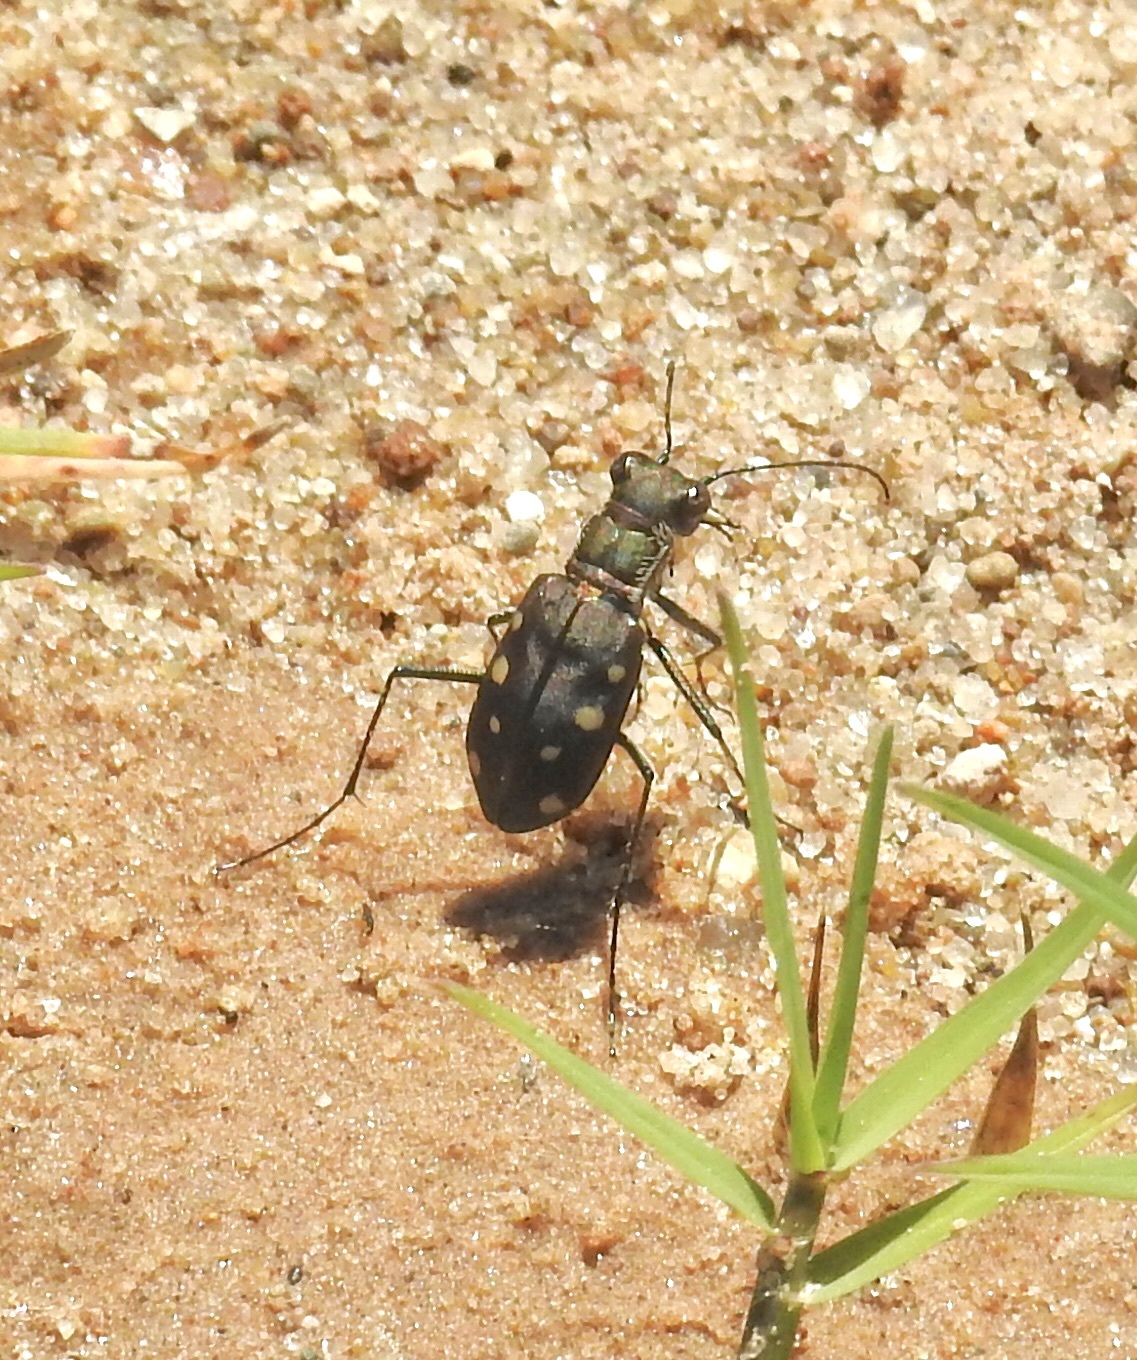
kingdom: Animalia
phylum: Arthropoda
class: Insecta
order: Coleoptera
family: Carabidae
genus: Cicindela
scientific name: Cicindela ocellata
